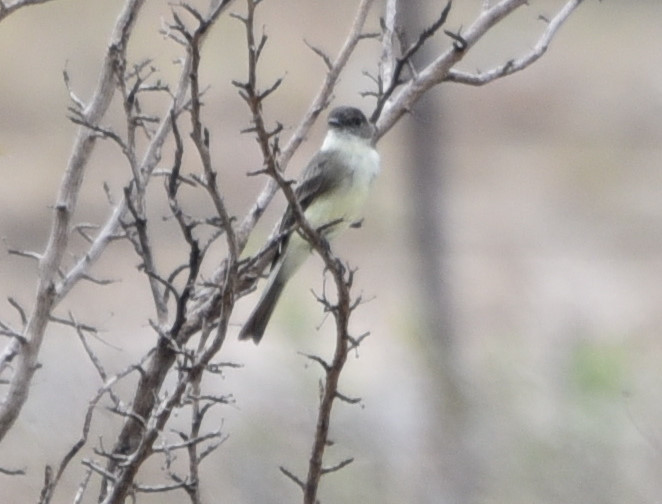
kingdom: Animalia
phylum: Chordata
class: Aves
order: Passeriformes
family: Tyrannidae
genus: Sayornis
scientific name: Sayornis phoebe
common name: Eastern phoebe
